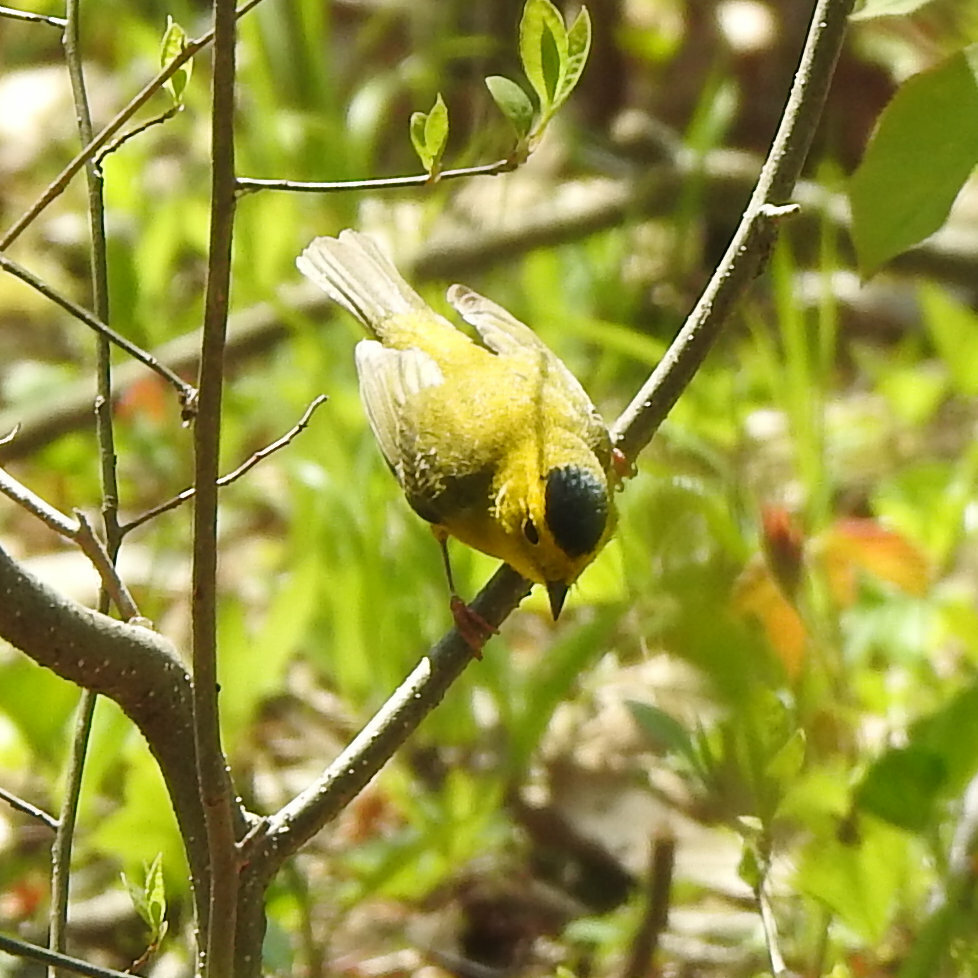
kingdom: Animalia
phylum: Chordata
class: Aves
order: Passeriformes
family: Parulidae
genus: Cardellina
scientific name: Cardellina pusilla
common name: Wilson's warbler
